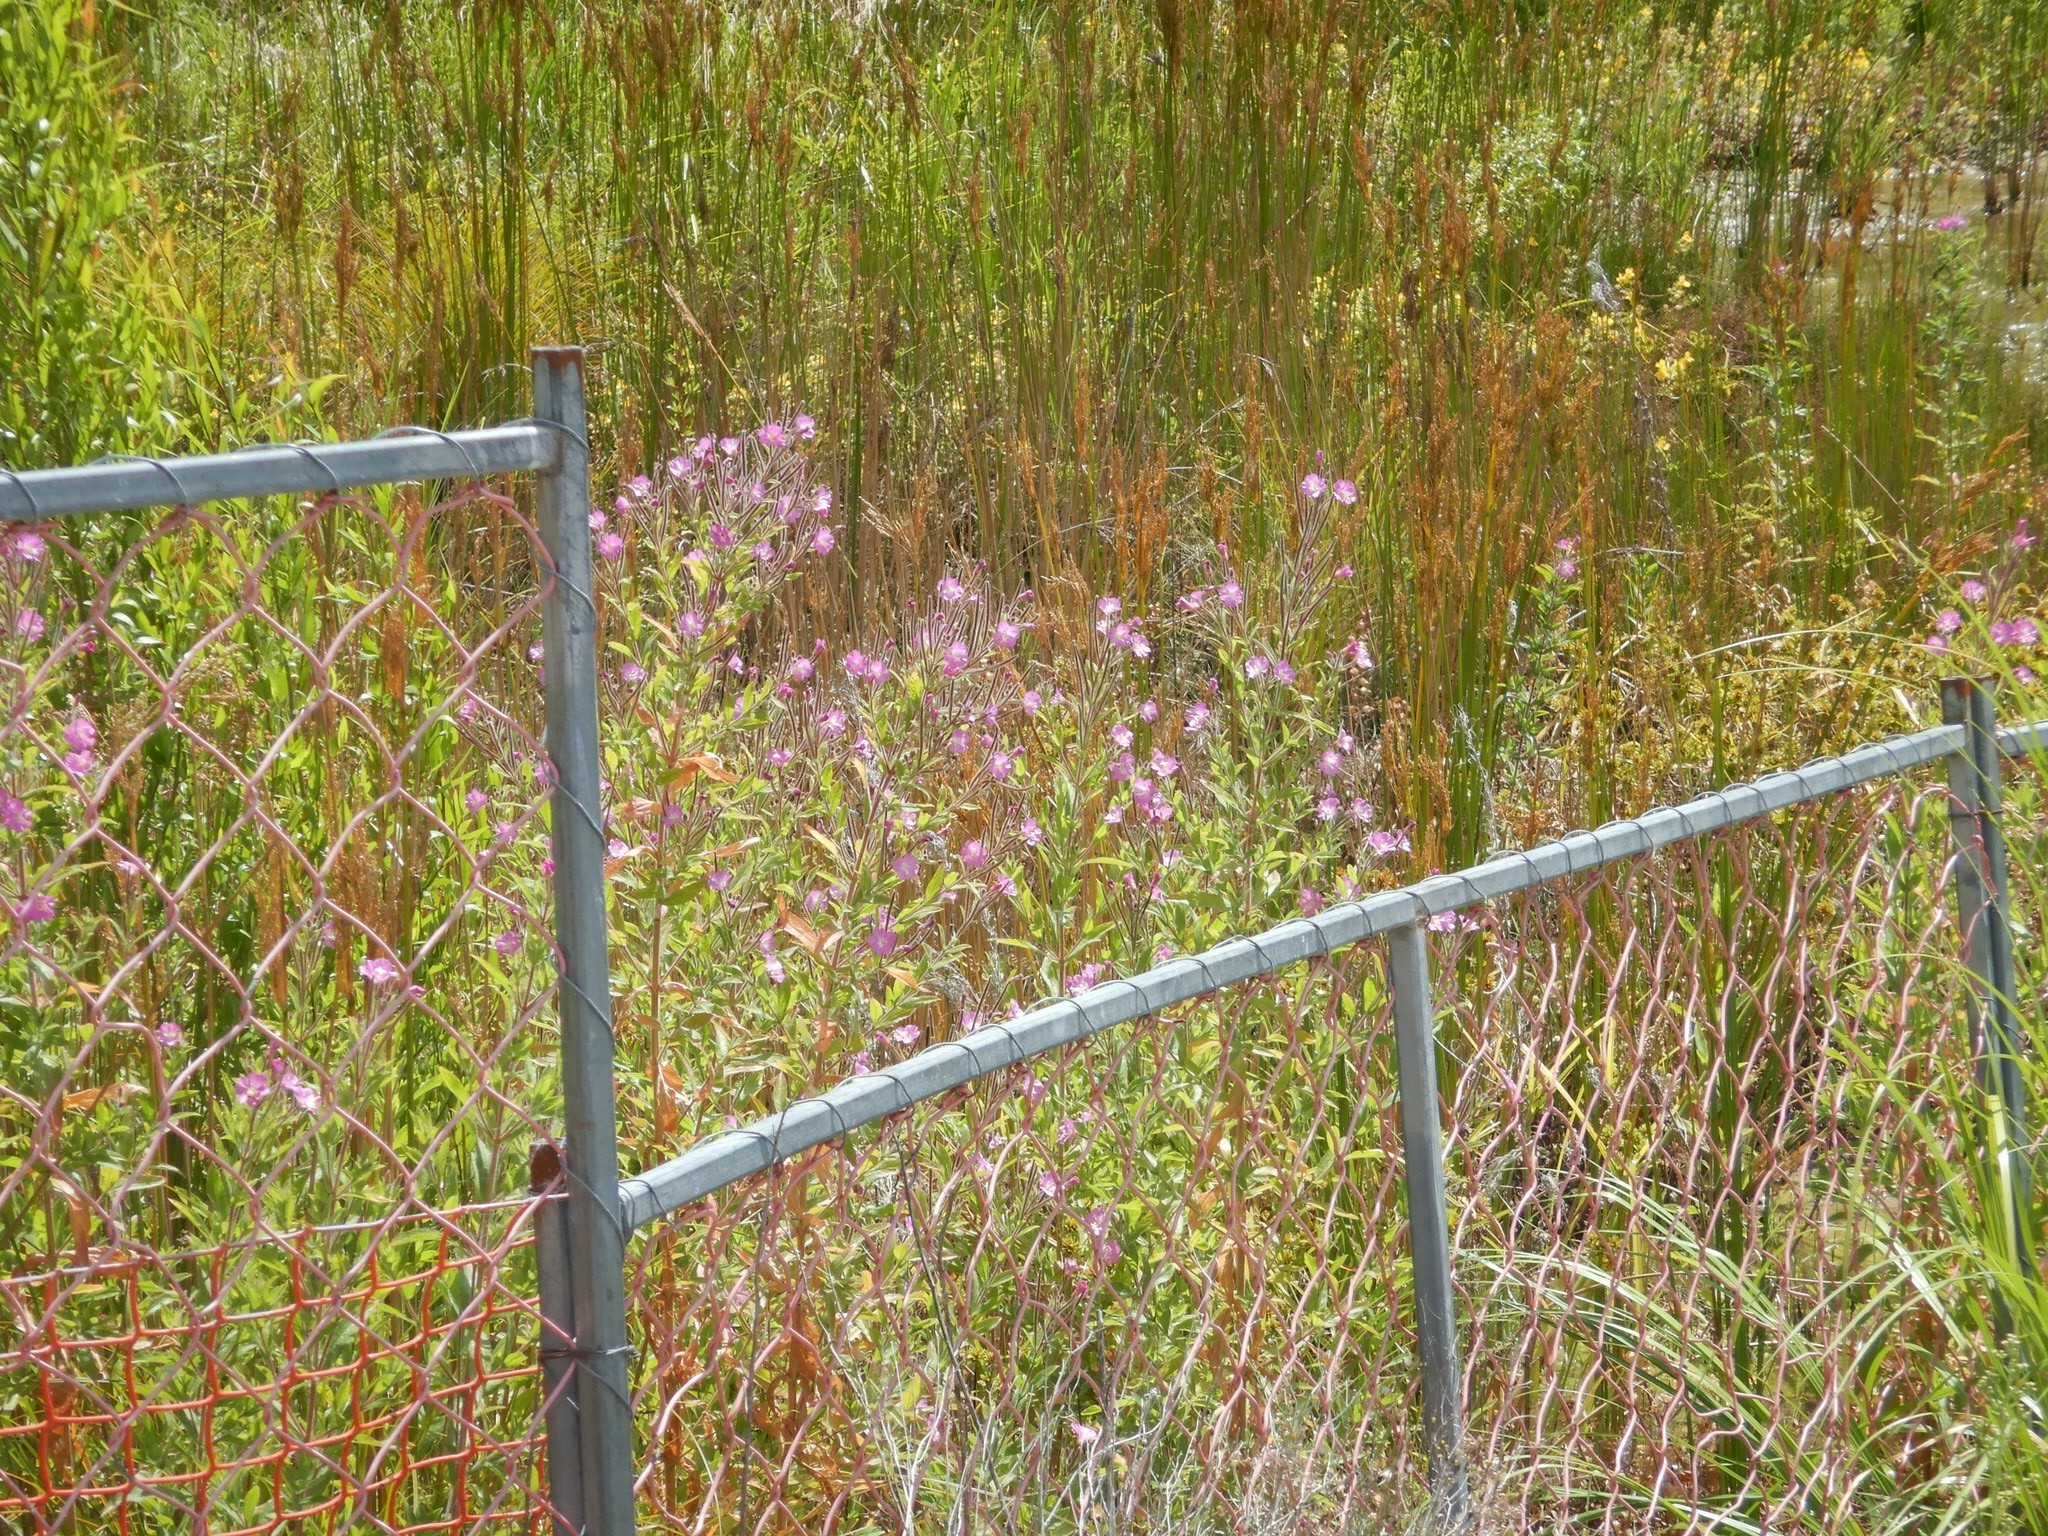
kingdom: Plantae
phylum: Tracheophyta
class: Magnoliopsida
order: Myrtales
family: Onagraceae
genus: Epilobium
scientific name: Epilobium hirsutum
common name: Great willowherb
